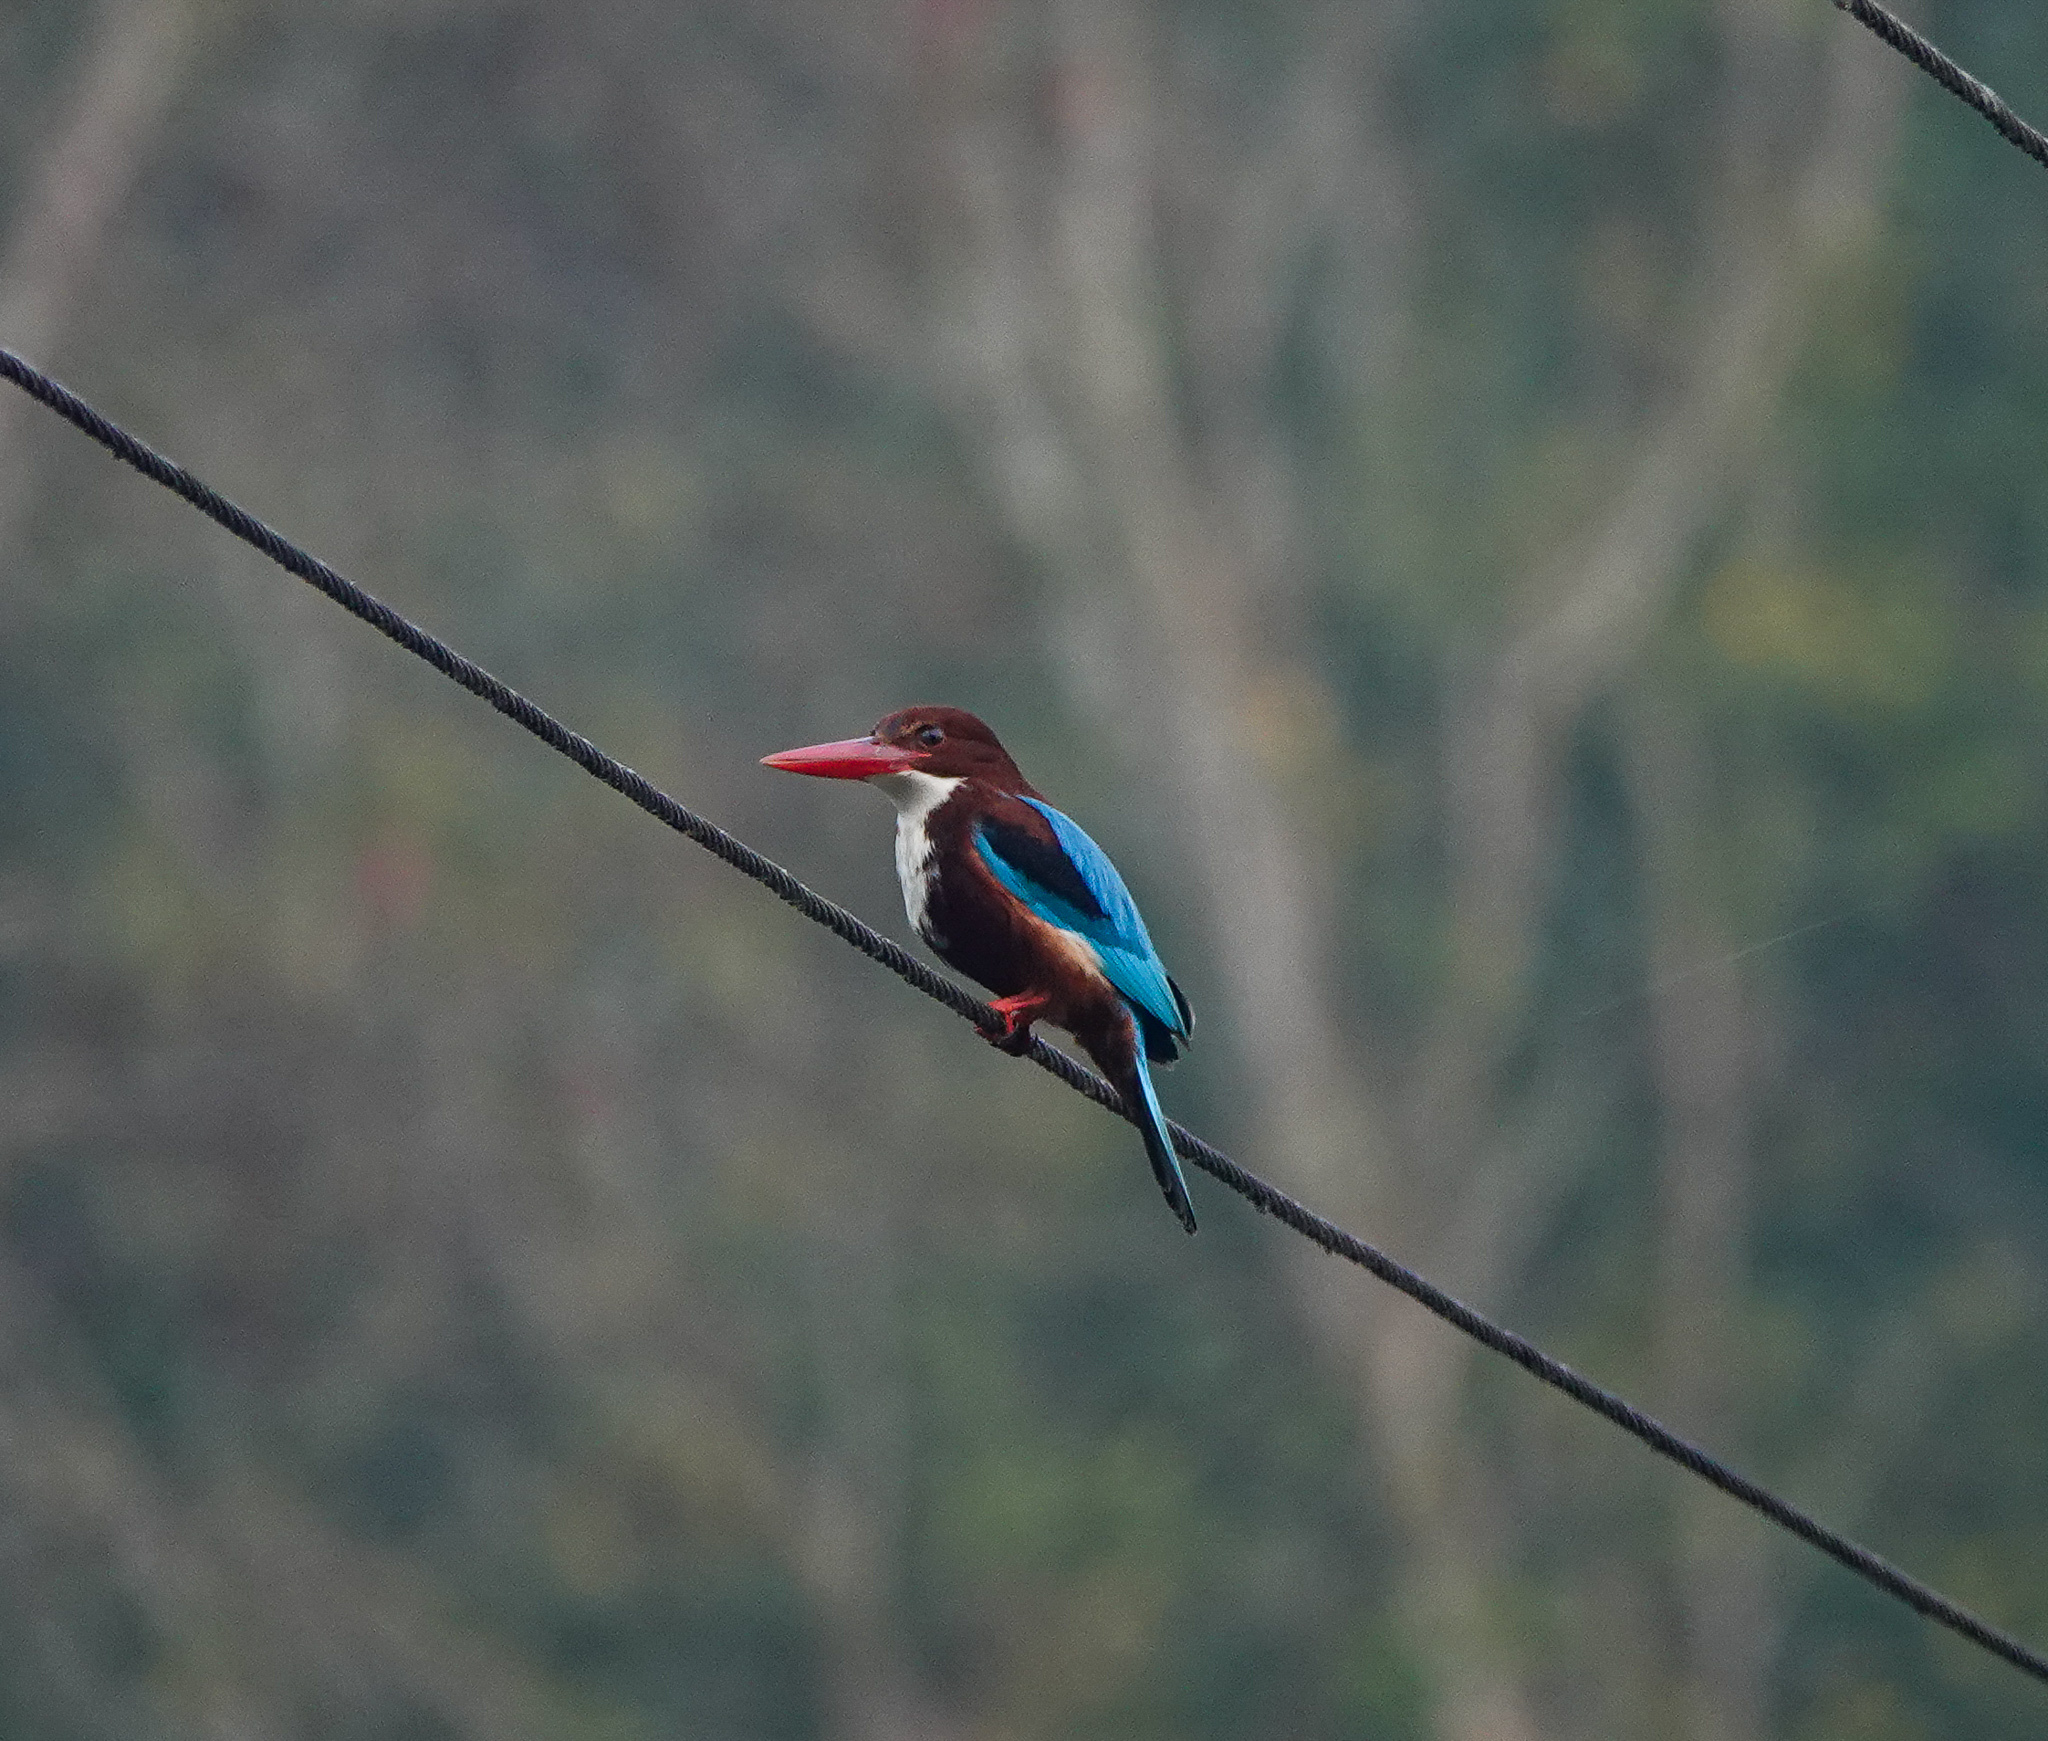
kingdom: Animalia
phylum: Chordata
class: Aves
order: Coraciiformes
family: Alcedinidae
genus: Halcyon
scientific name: Halcyon smyrnensis
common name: White-throated kingfisher
